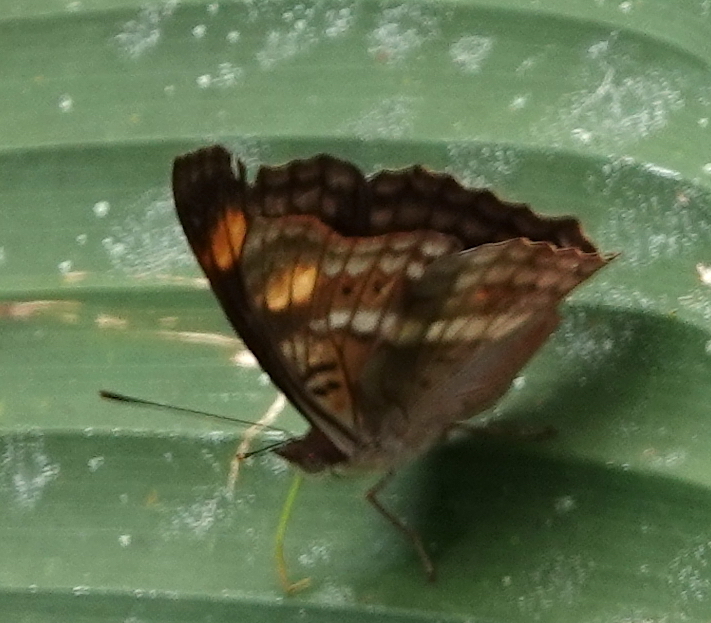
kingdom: Animalia
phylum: Arthropoda
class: Insecta
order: Lepidoptera
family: Nymphalidae
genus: Doxocopa
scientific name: Doxocopa pavon
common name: Pavon emperor
